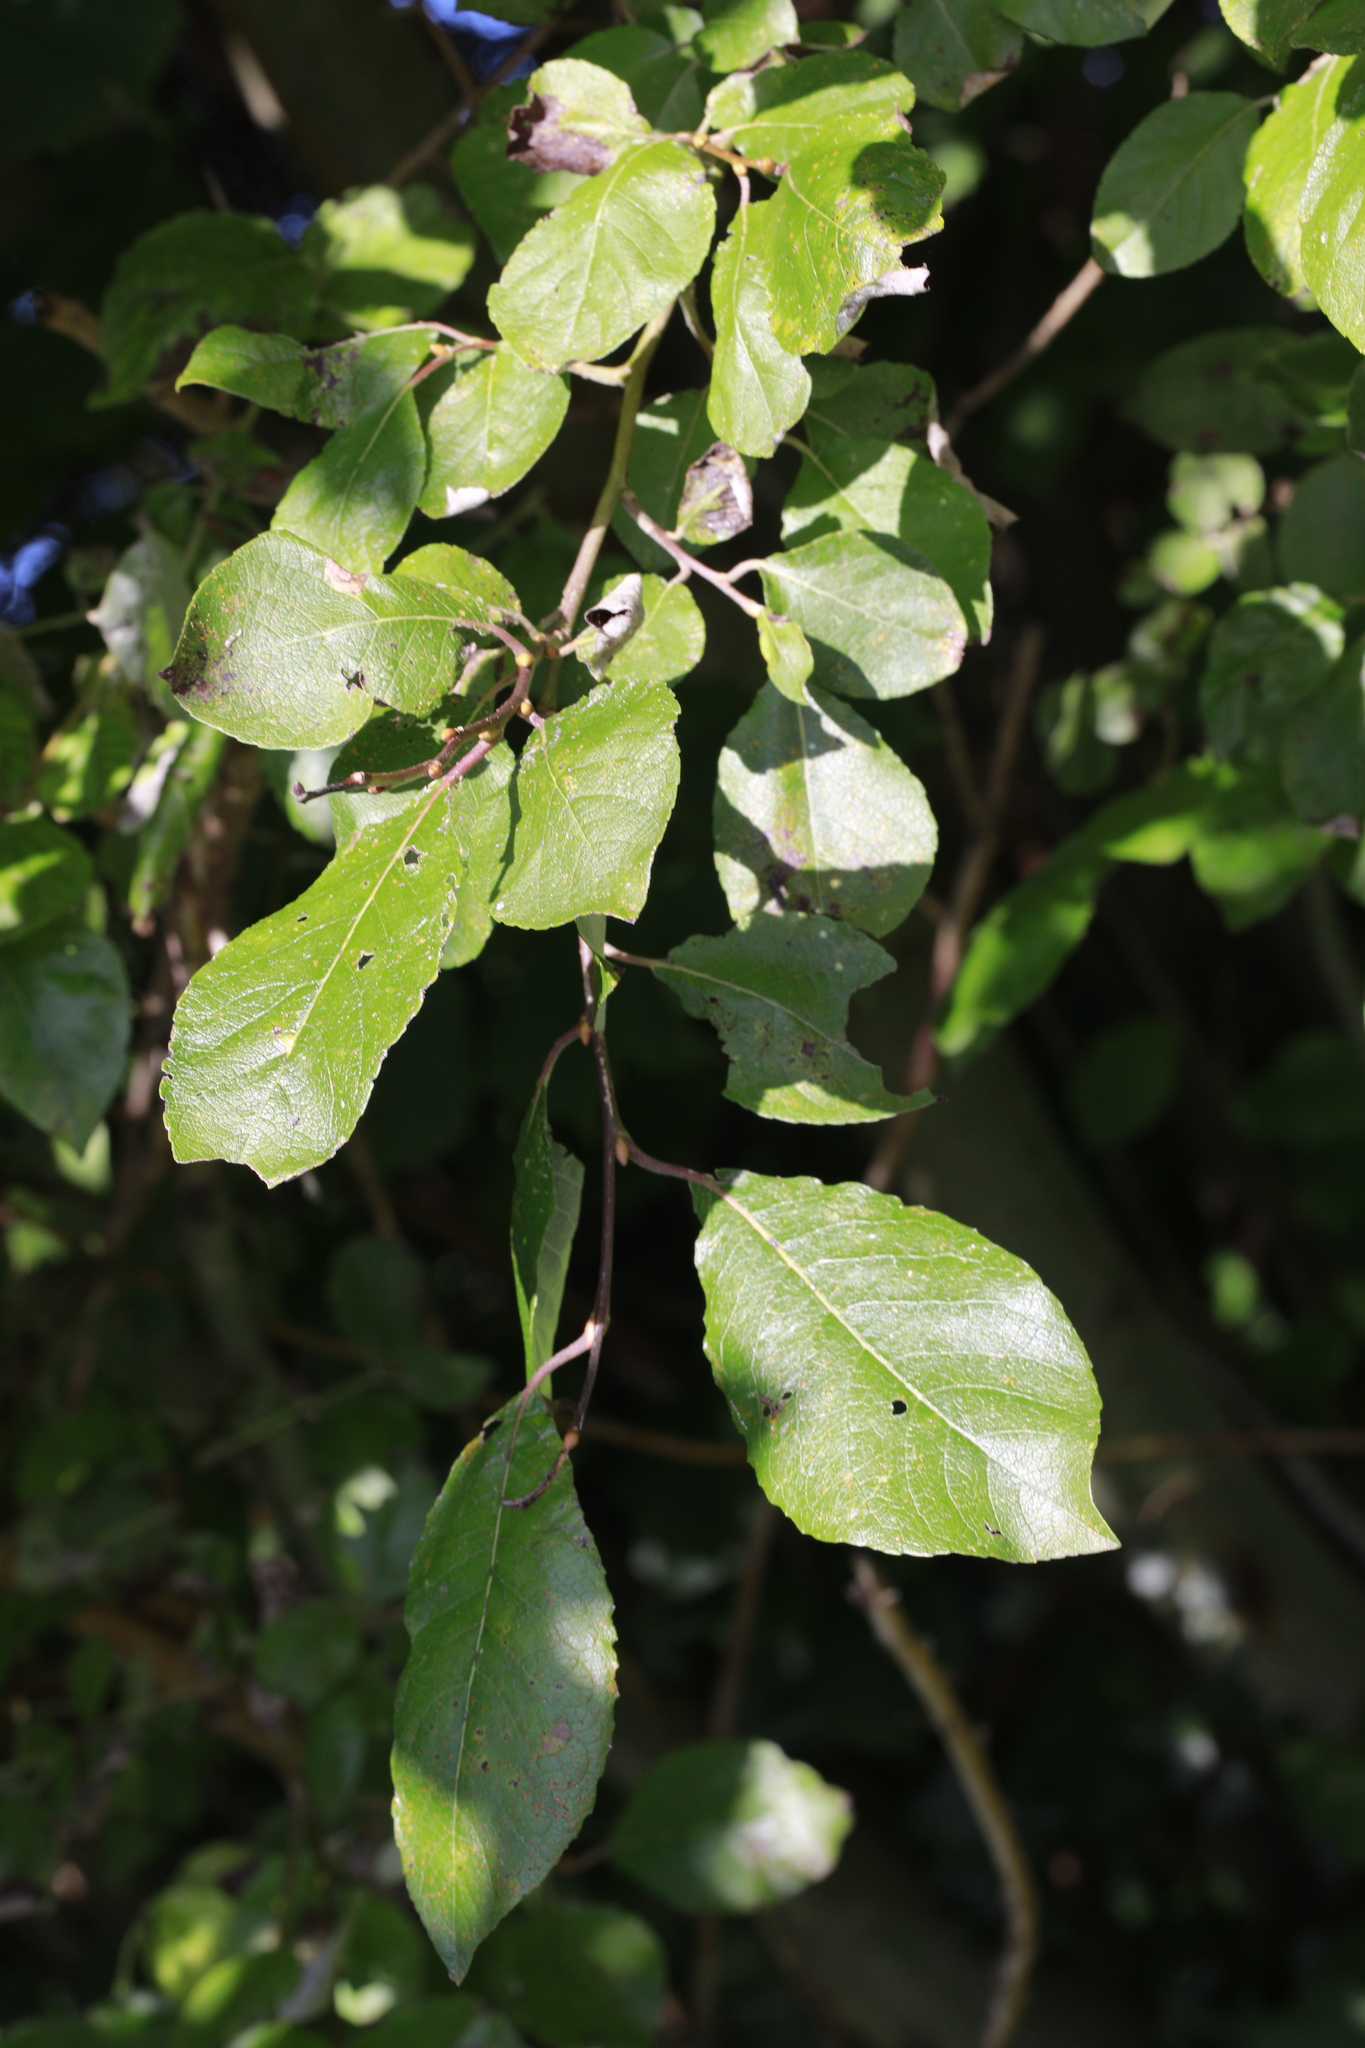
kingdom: Plantae
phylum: Tracheophyta
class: Magnoliopsida
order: Malpighiales
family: Salicaceae
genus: Salix
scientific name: Salix caprea
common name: Goat willow
